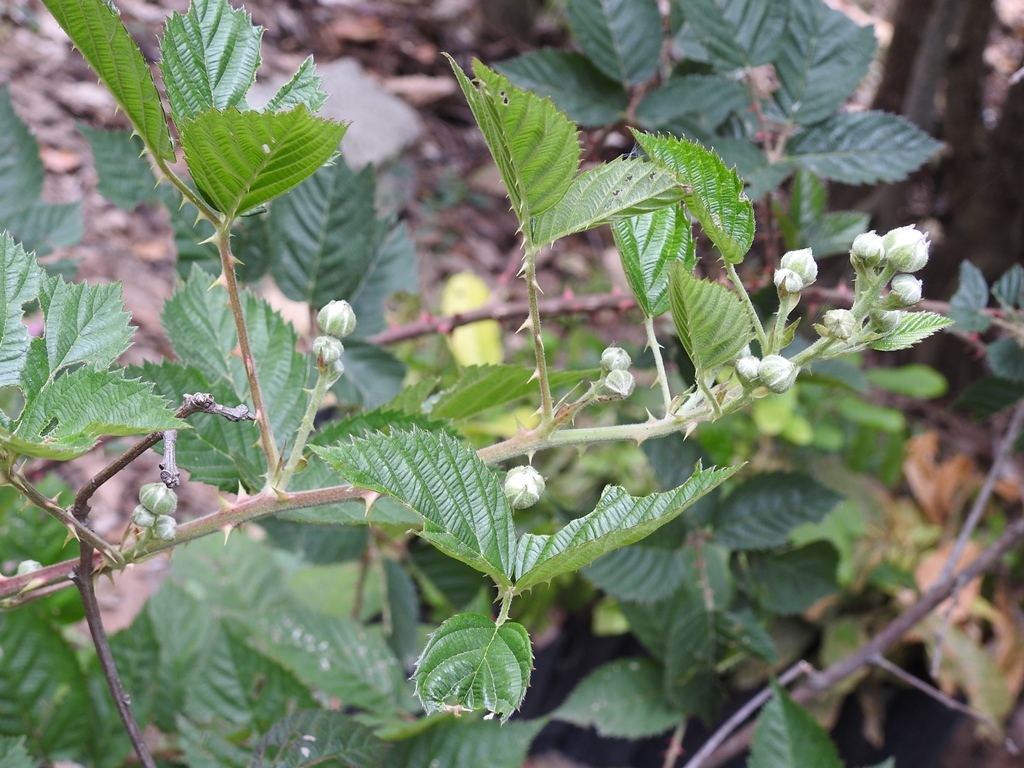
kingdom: Plantae
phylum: Tracheophyta
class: Magnoliopsida
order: Rosales
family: Rosaceae
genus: Rubus
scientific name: Rubus adenotrichos
